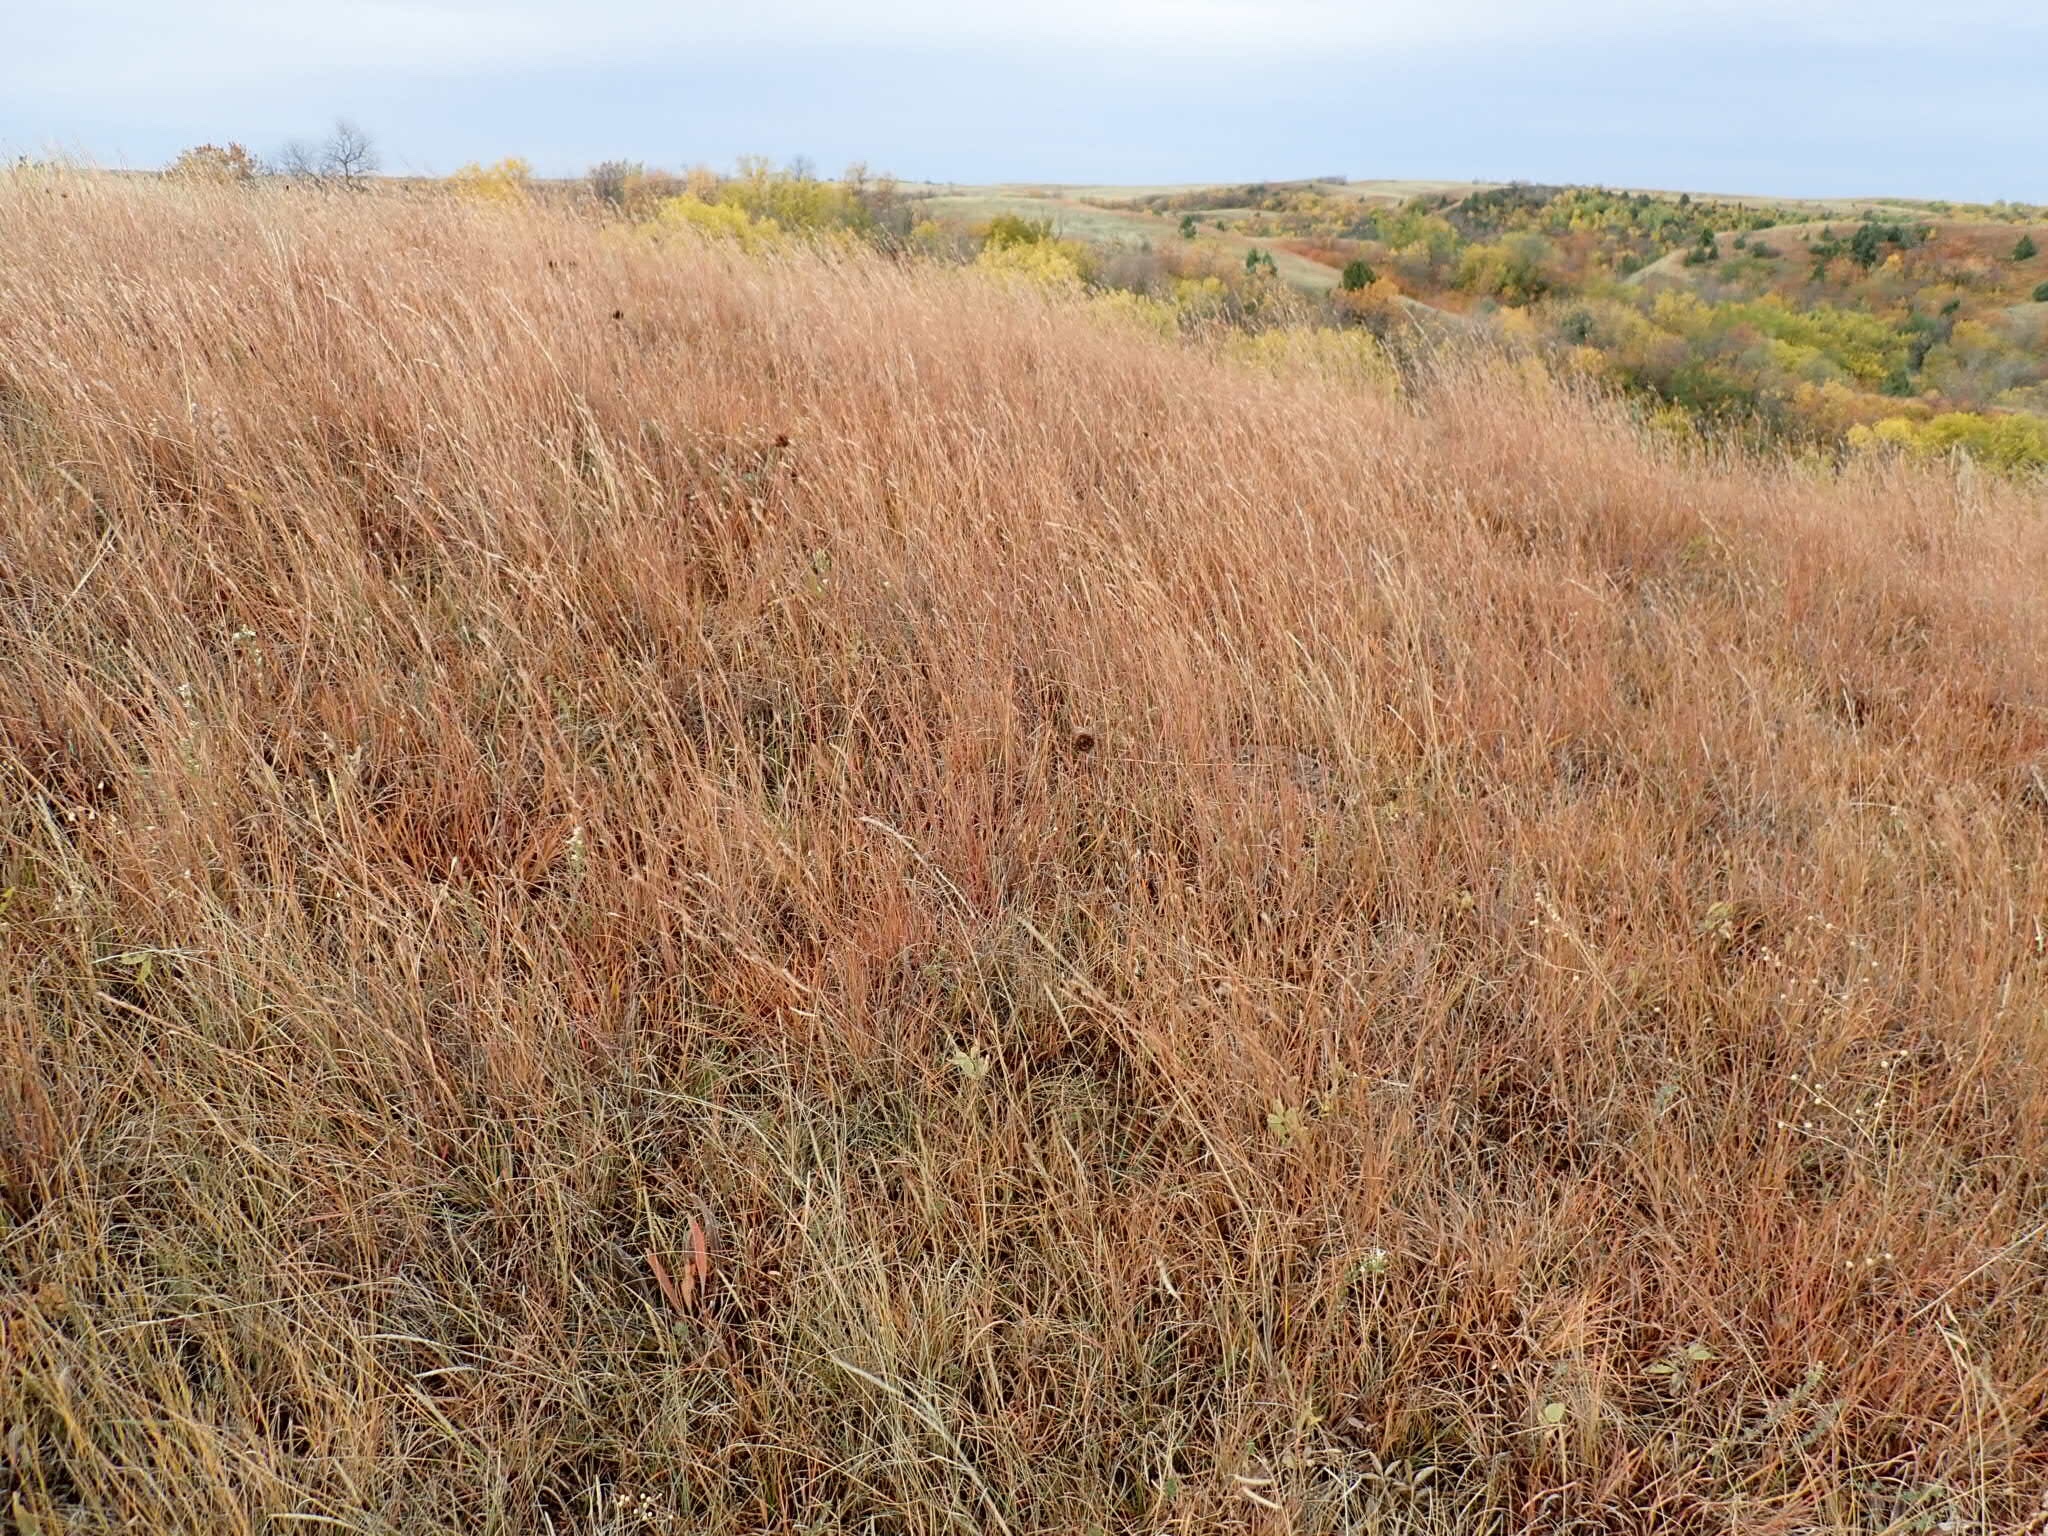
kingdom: Plantae
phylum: Tracheophyta
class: Liliopsida
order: Poales
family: Poaceae
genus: Schizachyrium
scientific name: Schizachyrium scoparium
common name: Little bluestem
